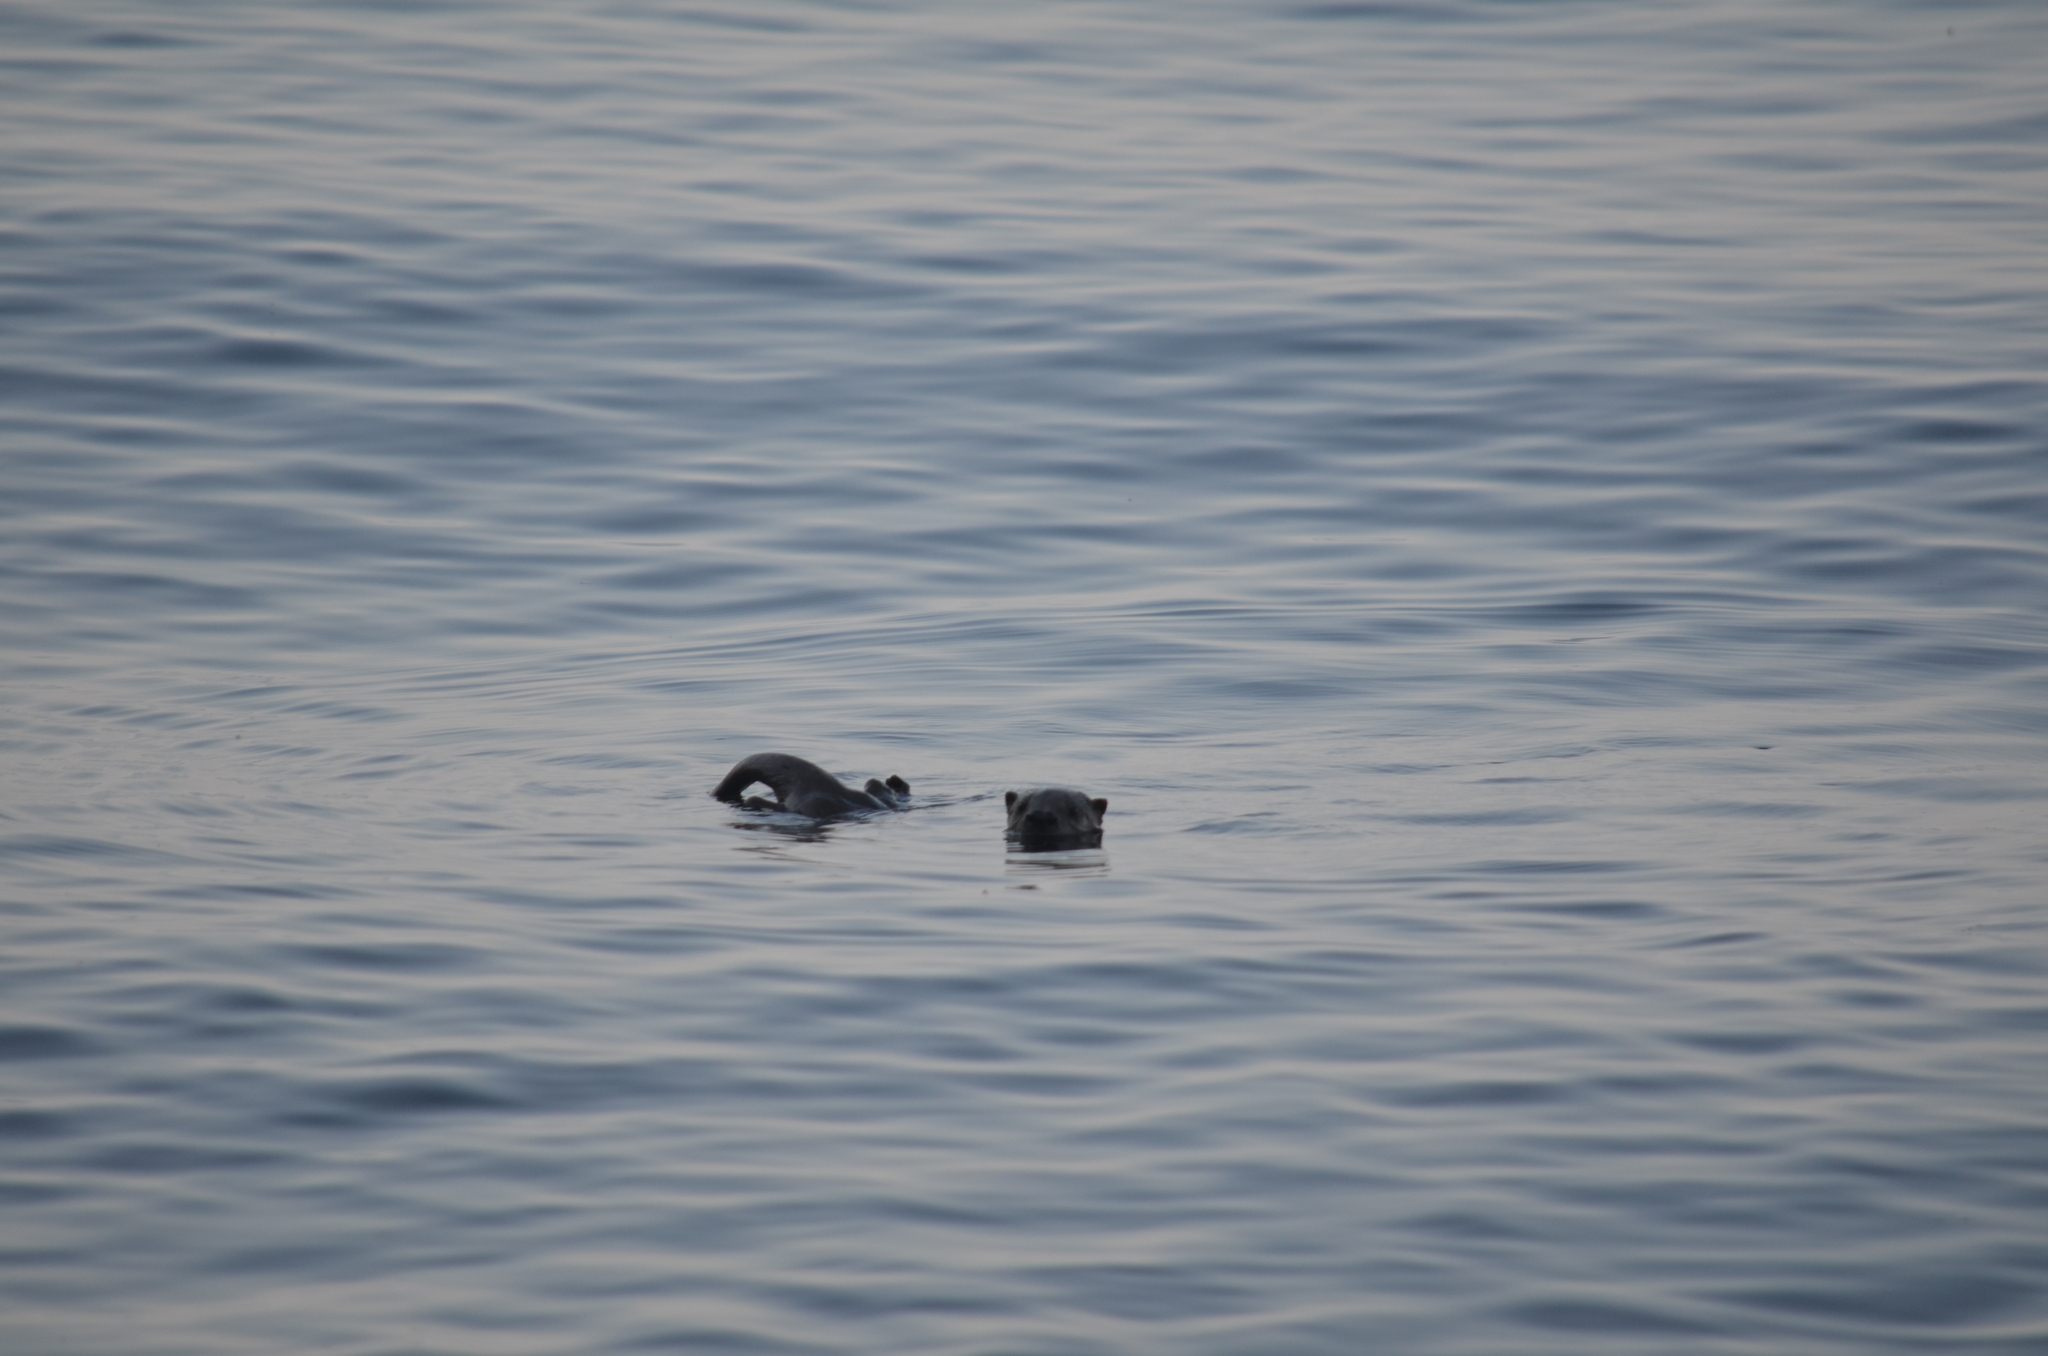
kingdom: Animalia
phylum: Chordata
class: Mammalia
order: Carnivora
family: Mustelidae
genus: Lontra
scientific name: Lontra canadensis
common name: North american river otter
